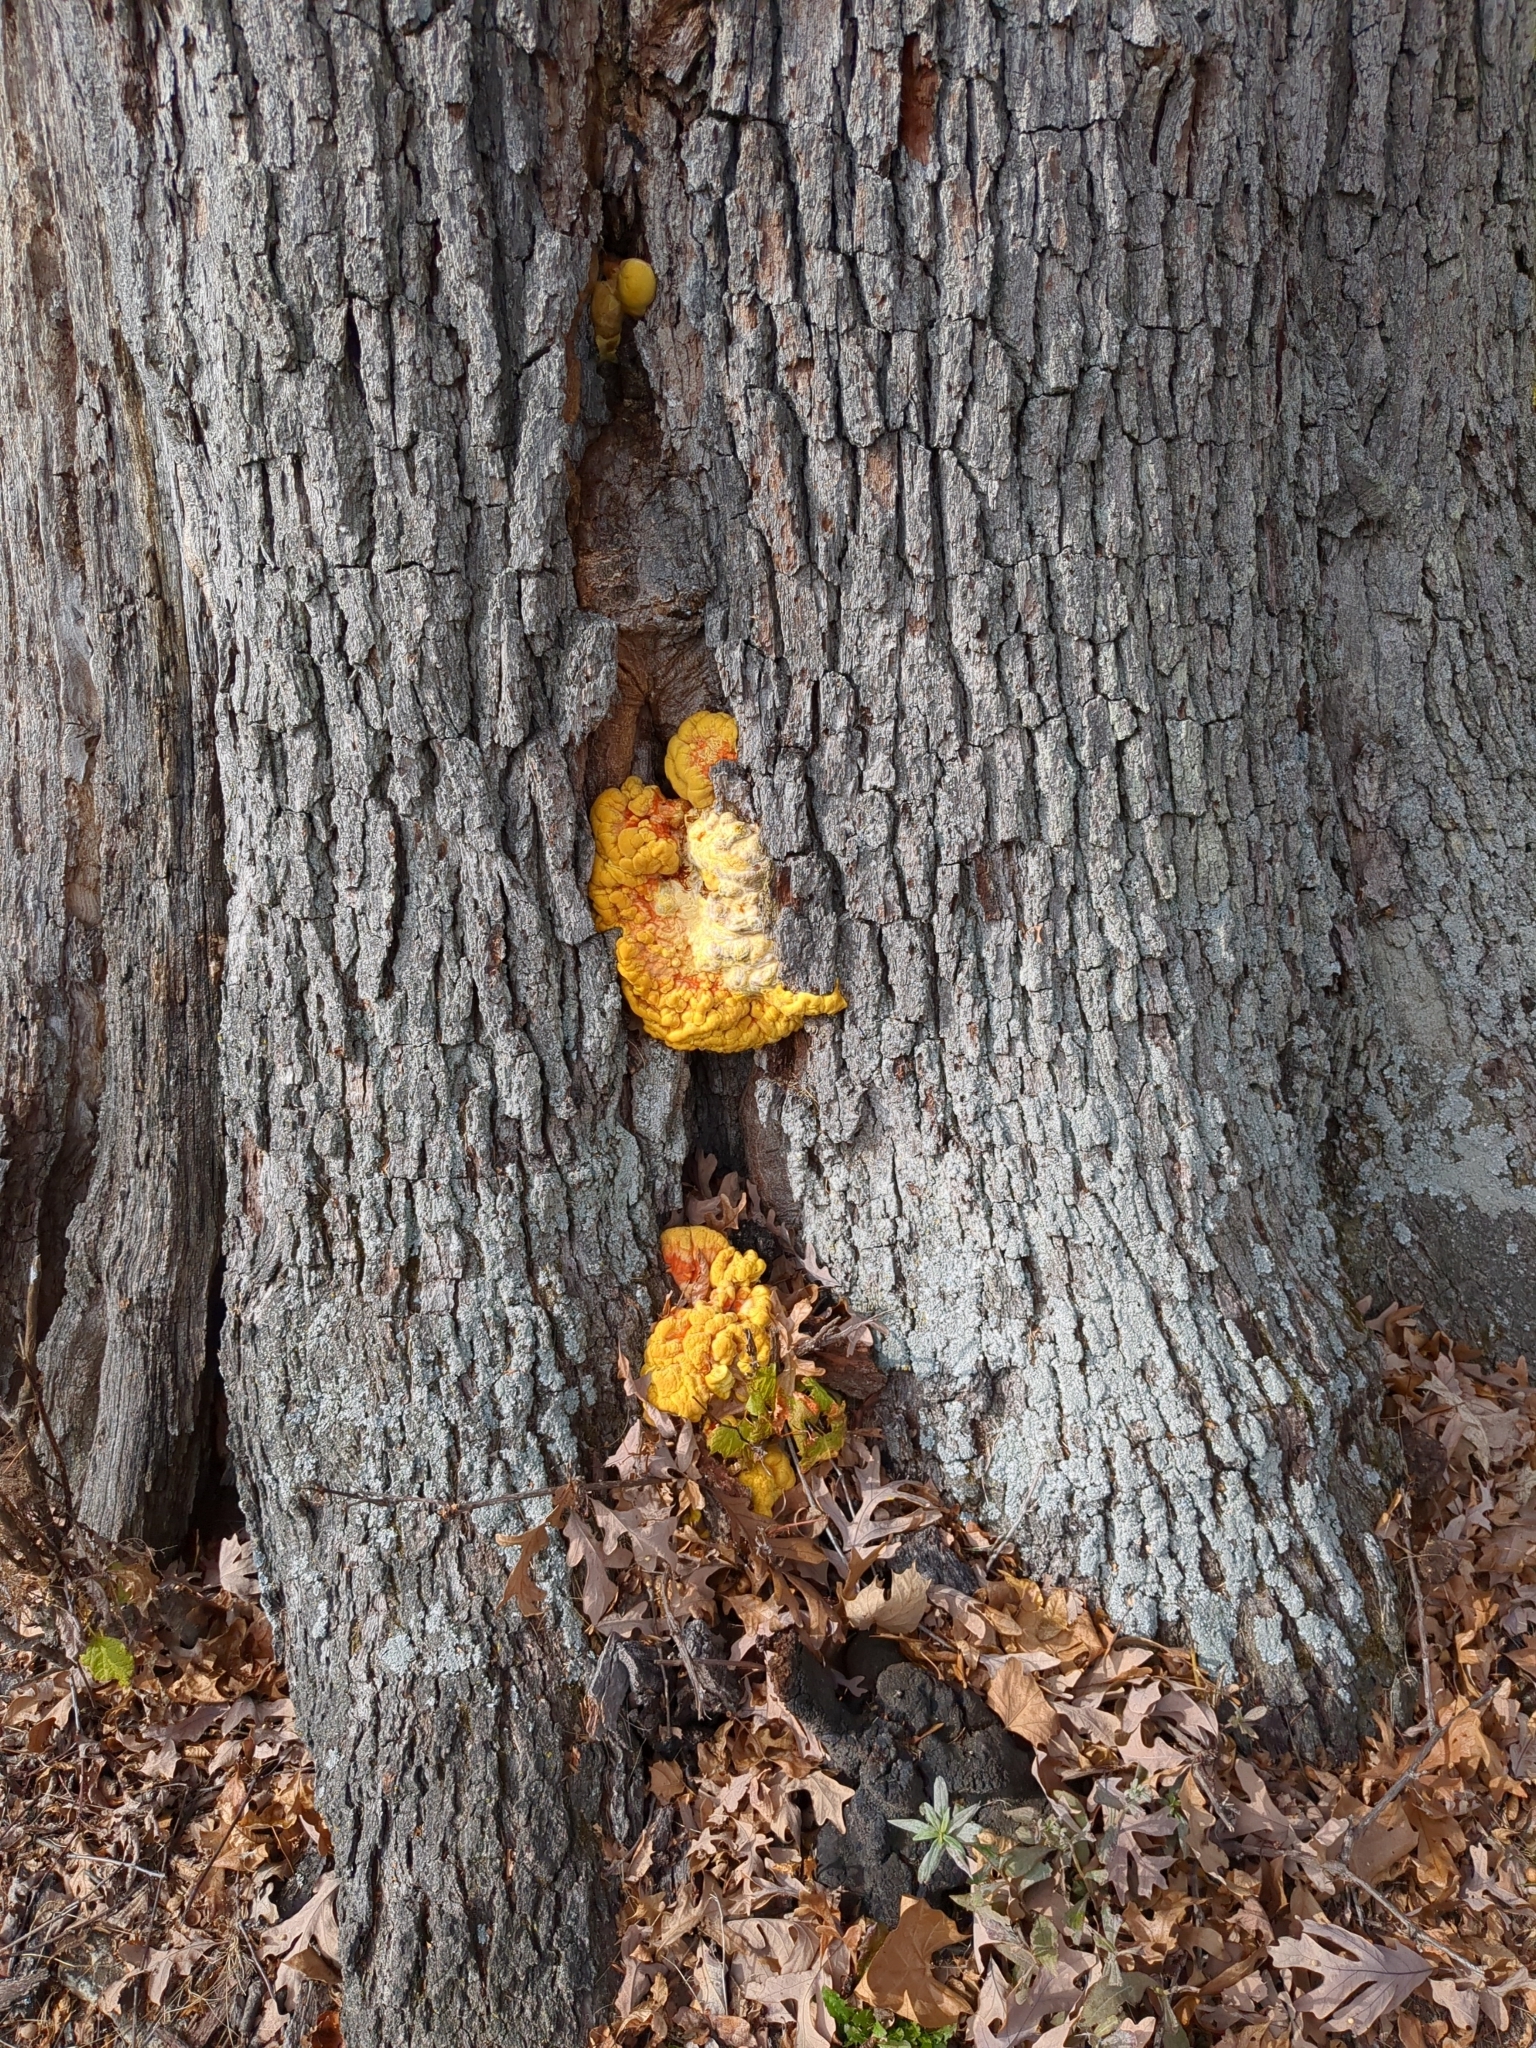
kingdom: Fungi
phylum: Basidiomycota
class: Agaricomycetes
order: Polyporales
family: Laetiporaceae
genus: Laetiporus
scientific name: Laetiporus sulphureus
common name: Chicken of the woods
